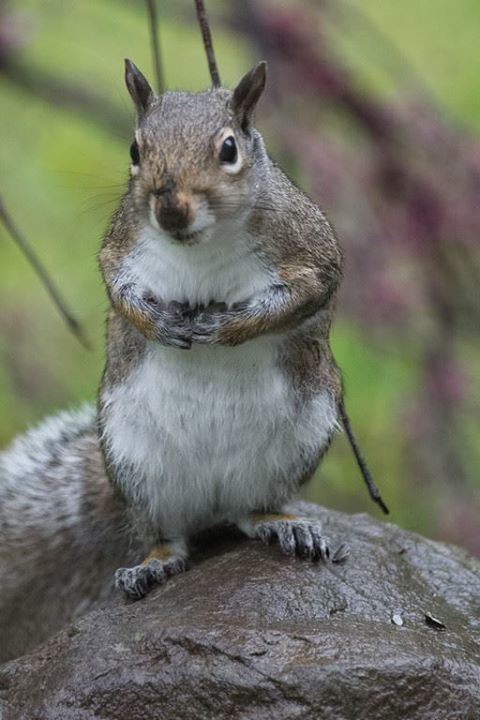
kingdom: Animalia
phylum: Chordata
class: Mammalia
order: Rodentia
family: Sciuridae
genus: Sciurus
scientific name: Sciurus carolinensis
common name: Eastern gray squirrel
